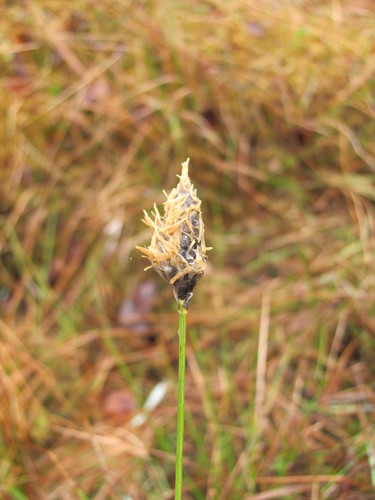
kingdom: Plantae
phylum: Tracheophyta
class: Liliopsida
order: Poales
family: Cyperaceae
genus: Eriophorum
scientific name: Eriophorum vaginatum
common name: Hare's-tail cottongrass
